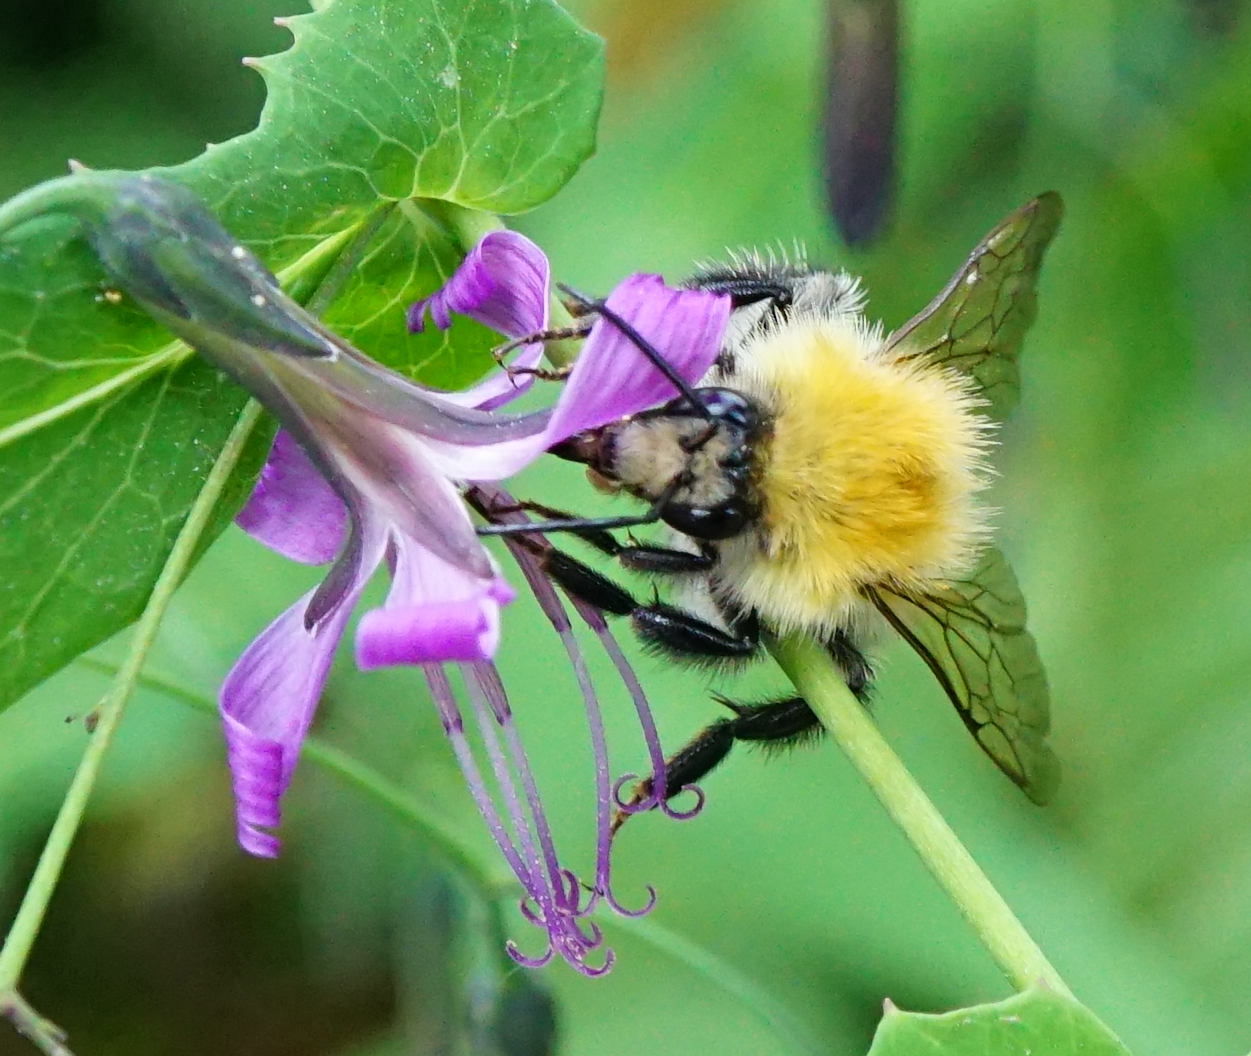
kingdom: Animalia
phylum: Arthropoda
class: Insecta
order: Hymenoptera
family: Apidae
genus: Bombus
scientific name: Bombus pascuorum
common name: Common carder bee
